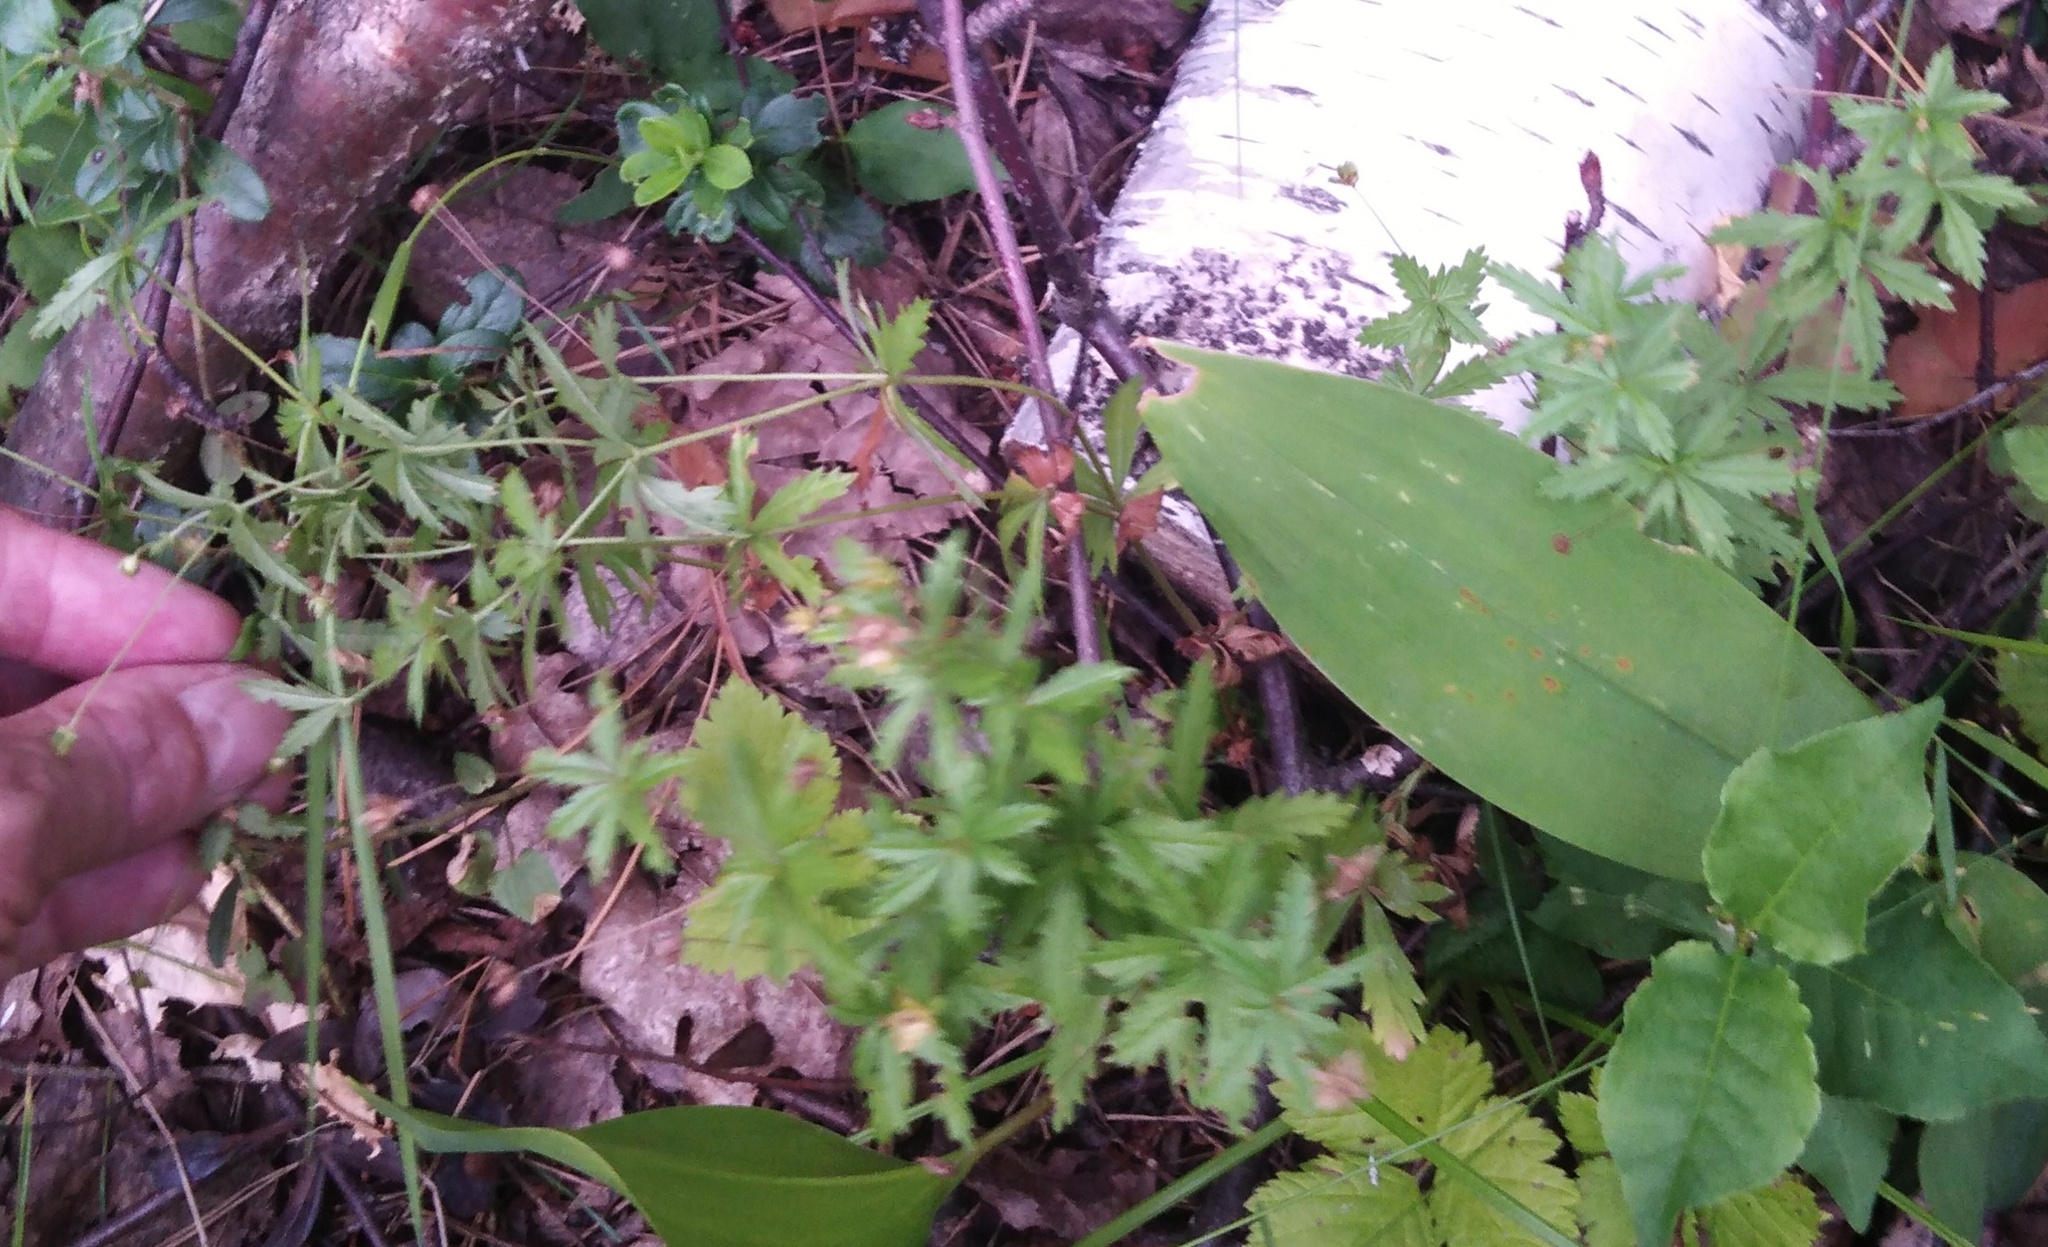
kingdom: Plantae
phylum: Tracheophyta
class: Magnoliopsida
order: Rosales
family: Rosaceae
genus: Potentilla
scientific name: Potentilla erecta
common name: Tormentil
